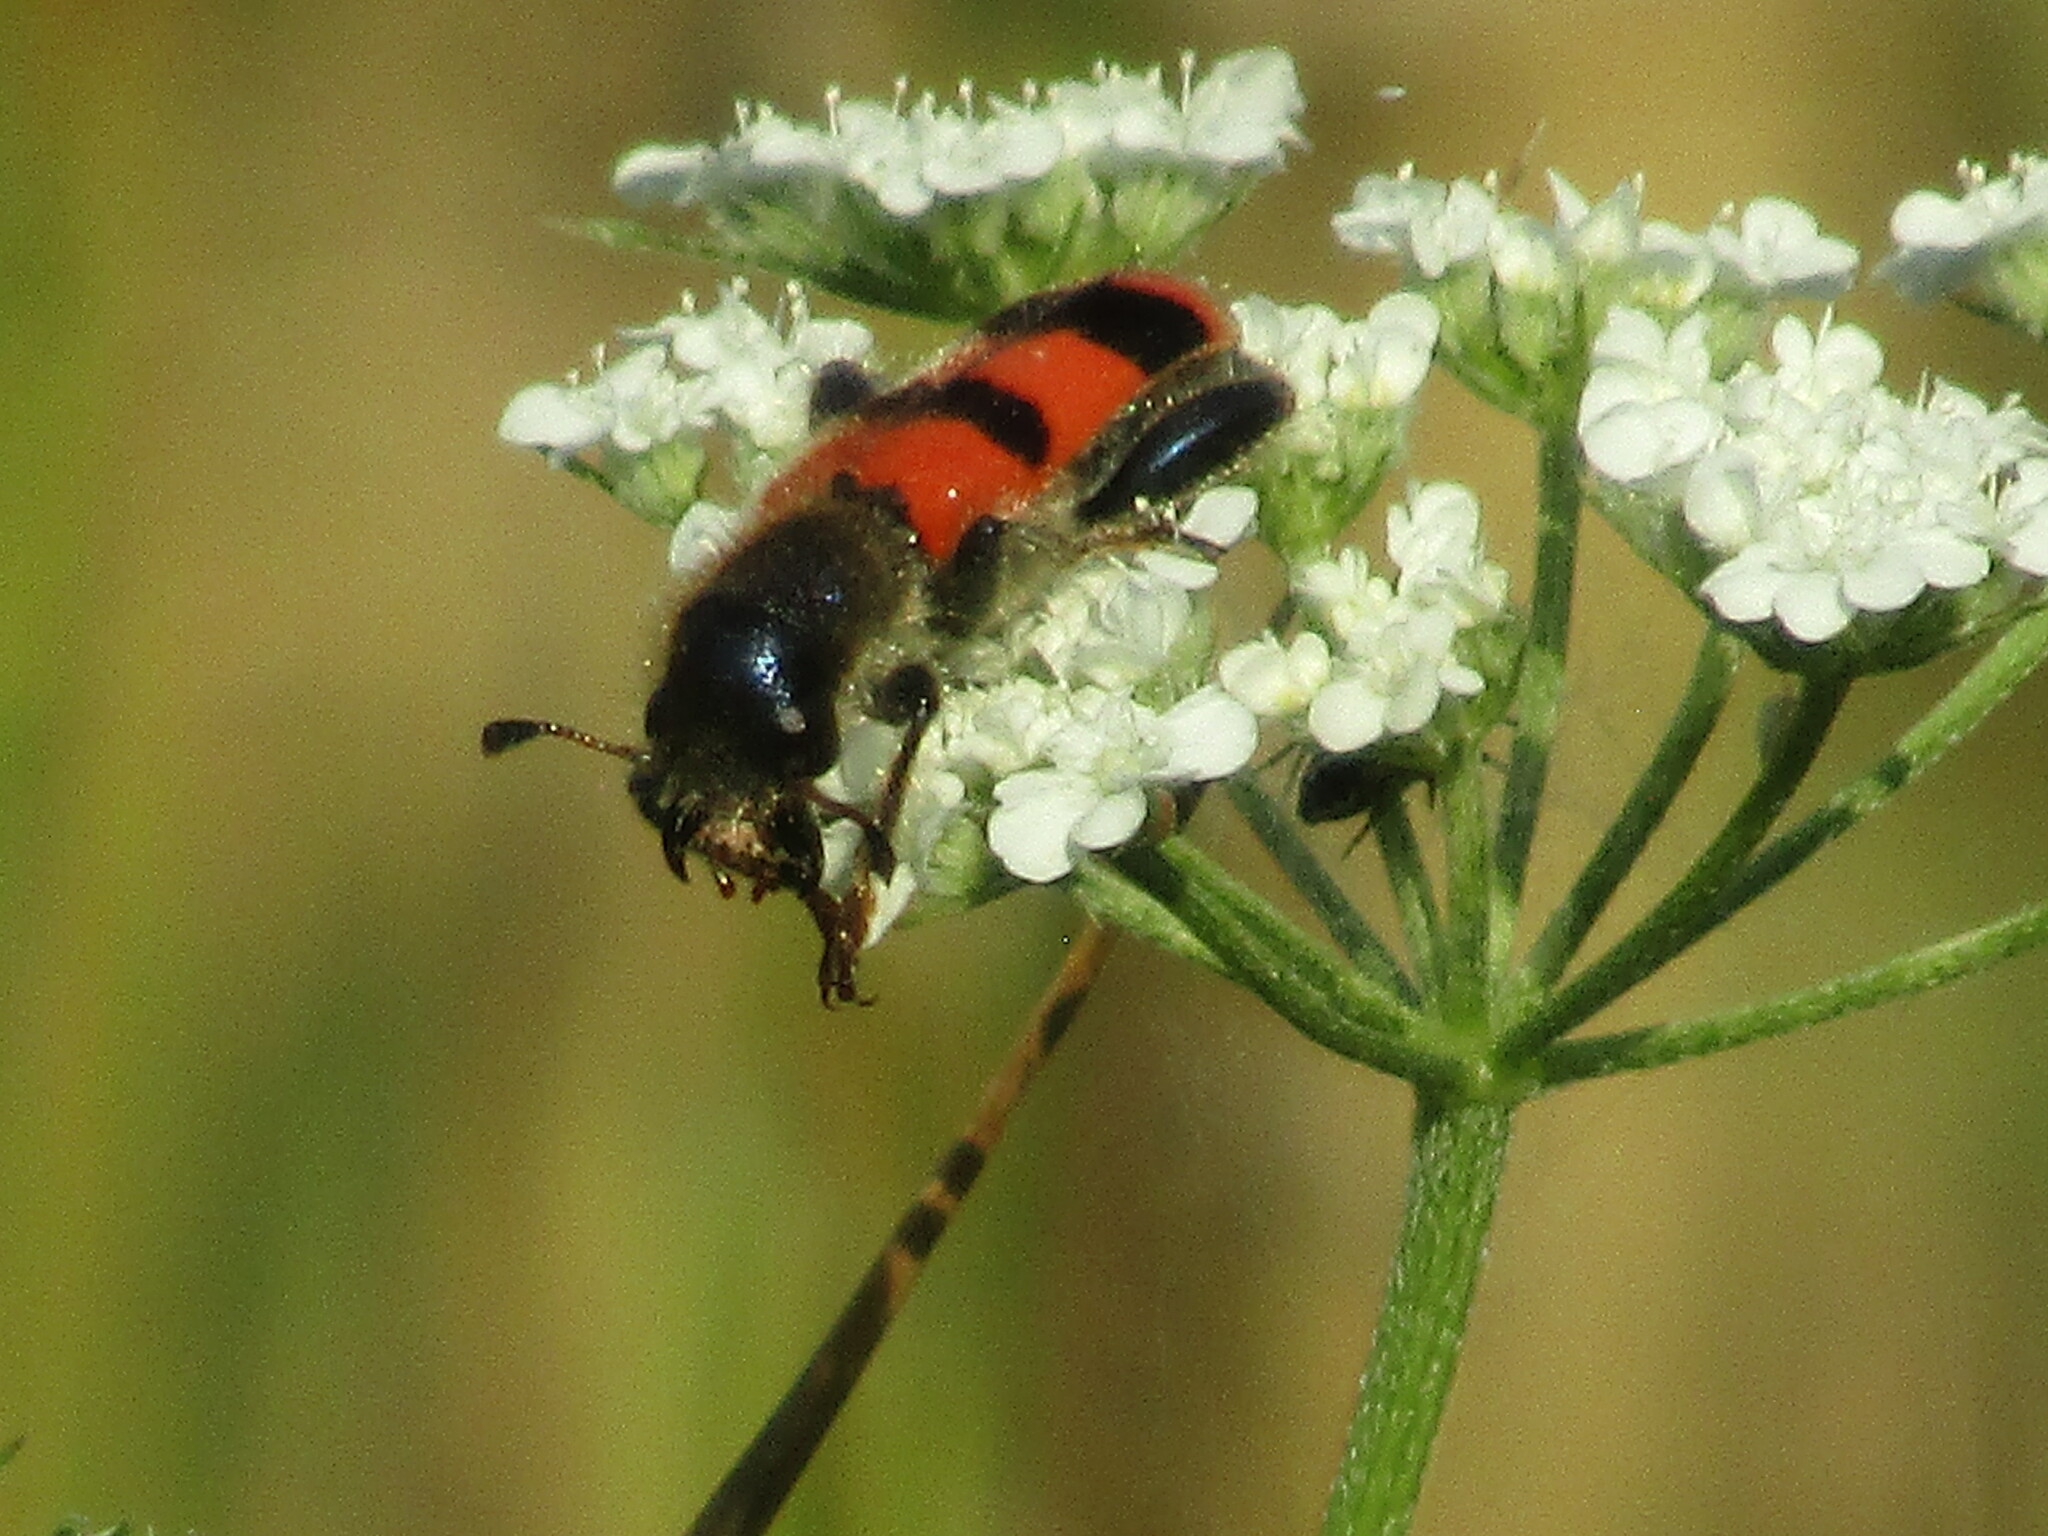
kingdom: Animalia
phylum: Arthropoda
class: Insecta
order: Coleoptera
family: Cleridae
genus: Trichodes
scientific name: Trichodes crabroniformis
